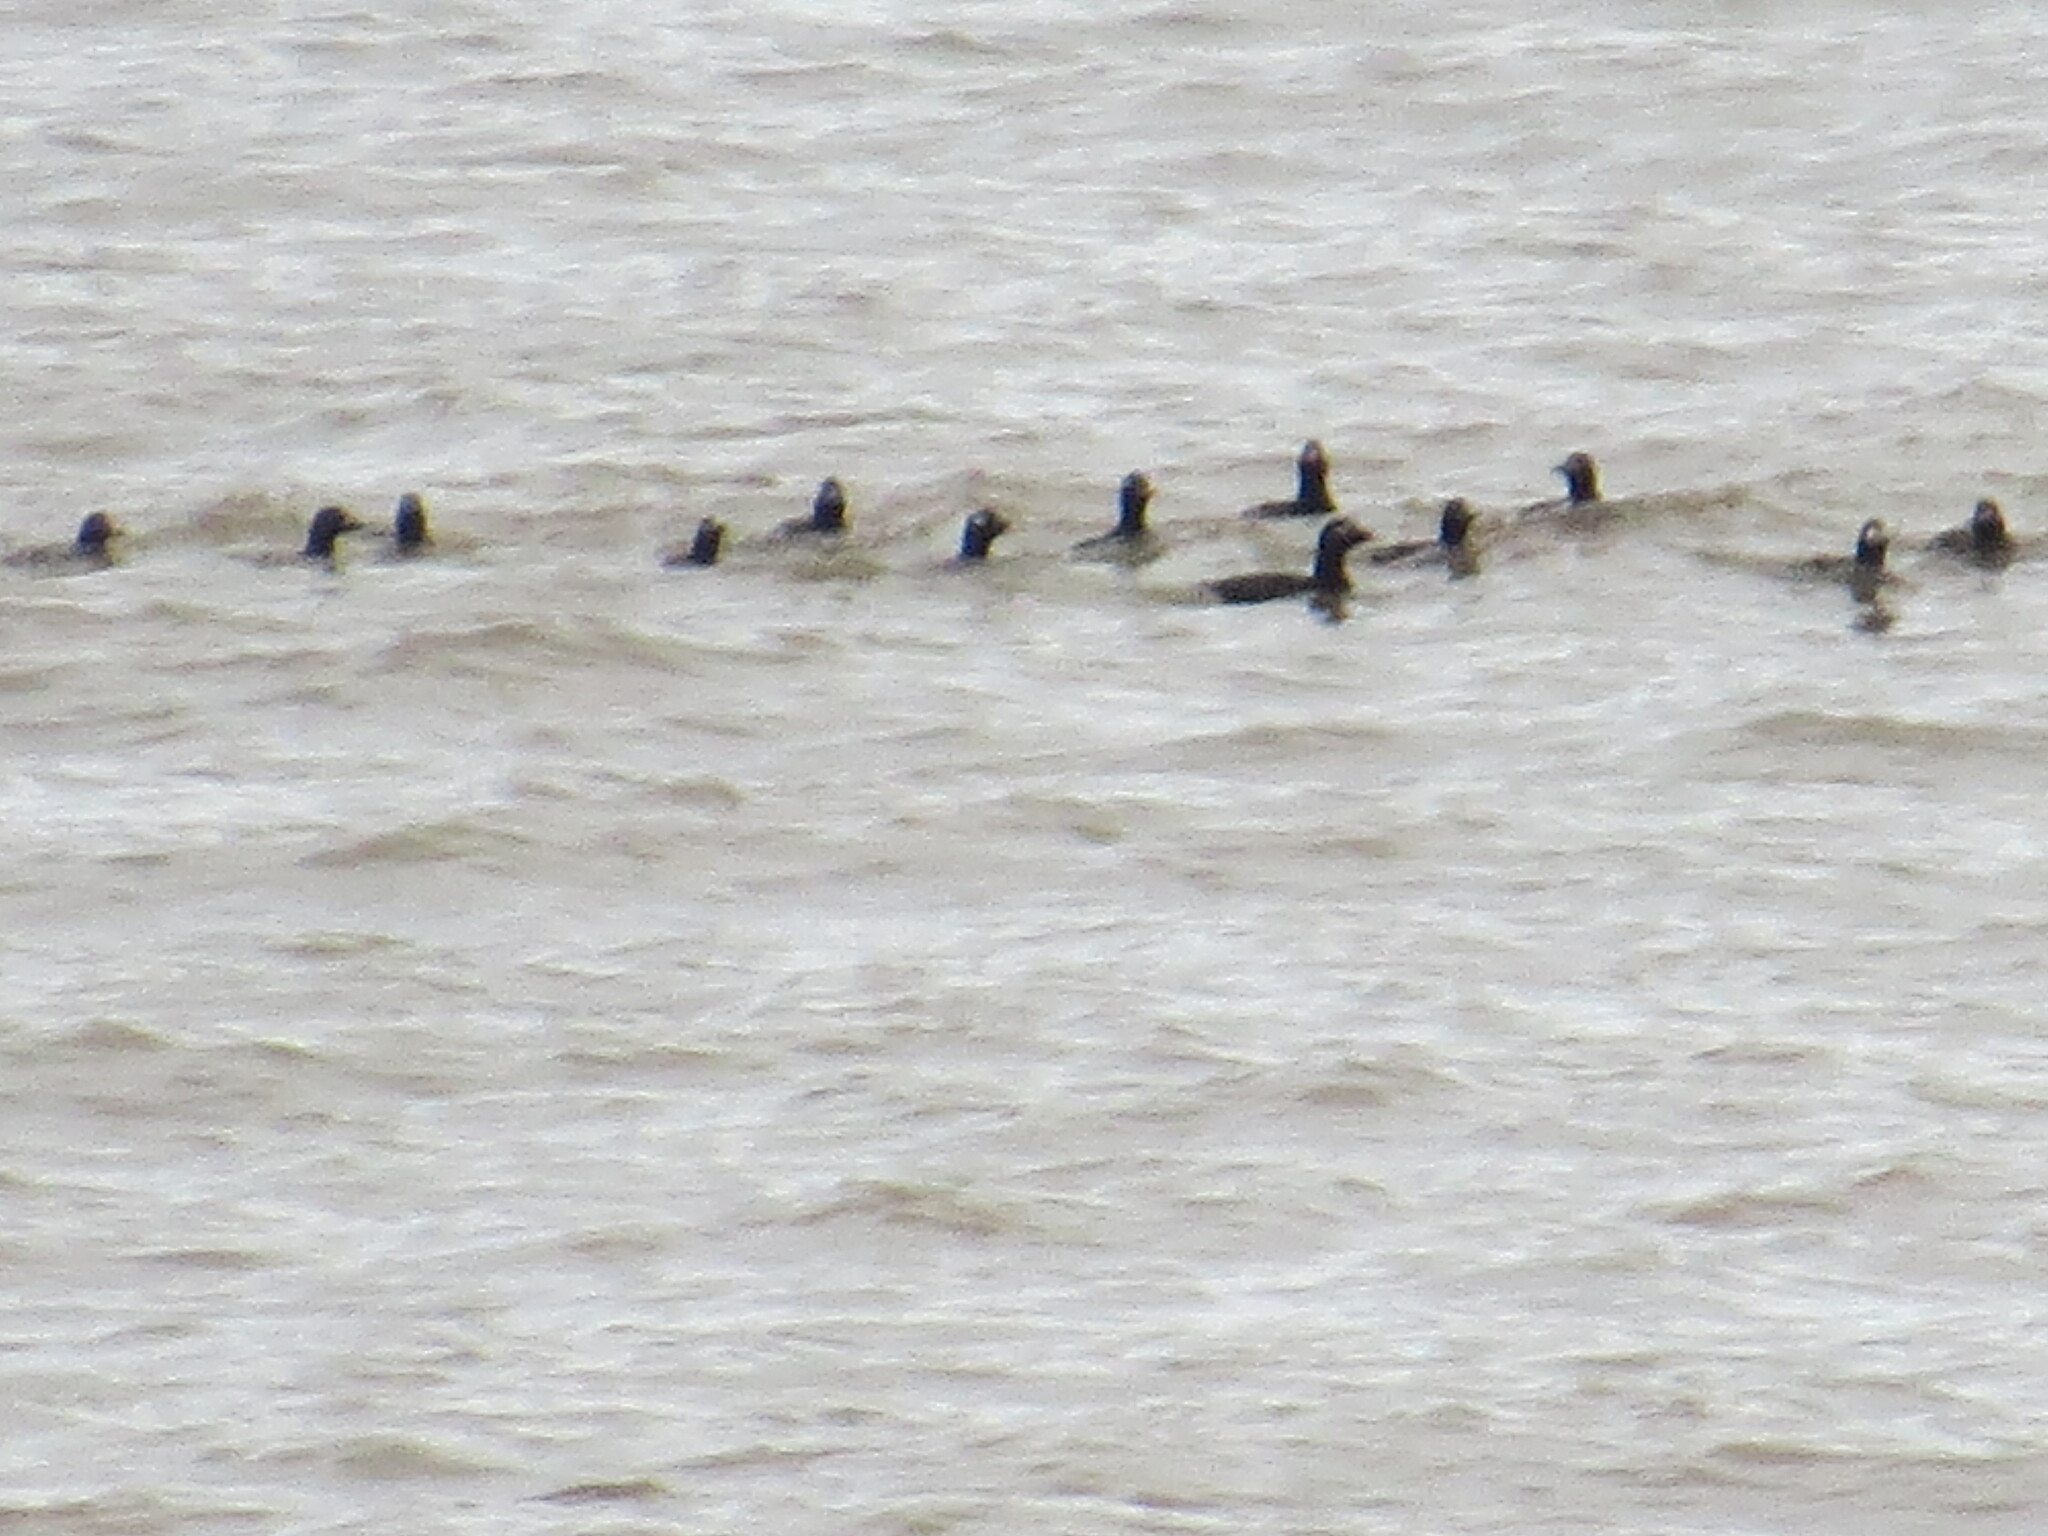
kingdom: Animalia
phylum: Chordata
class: Aves
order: Anseriformes
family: Anatidae
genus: Melanitta
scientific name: Melanitta deglandi
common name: White-winged scoter
